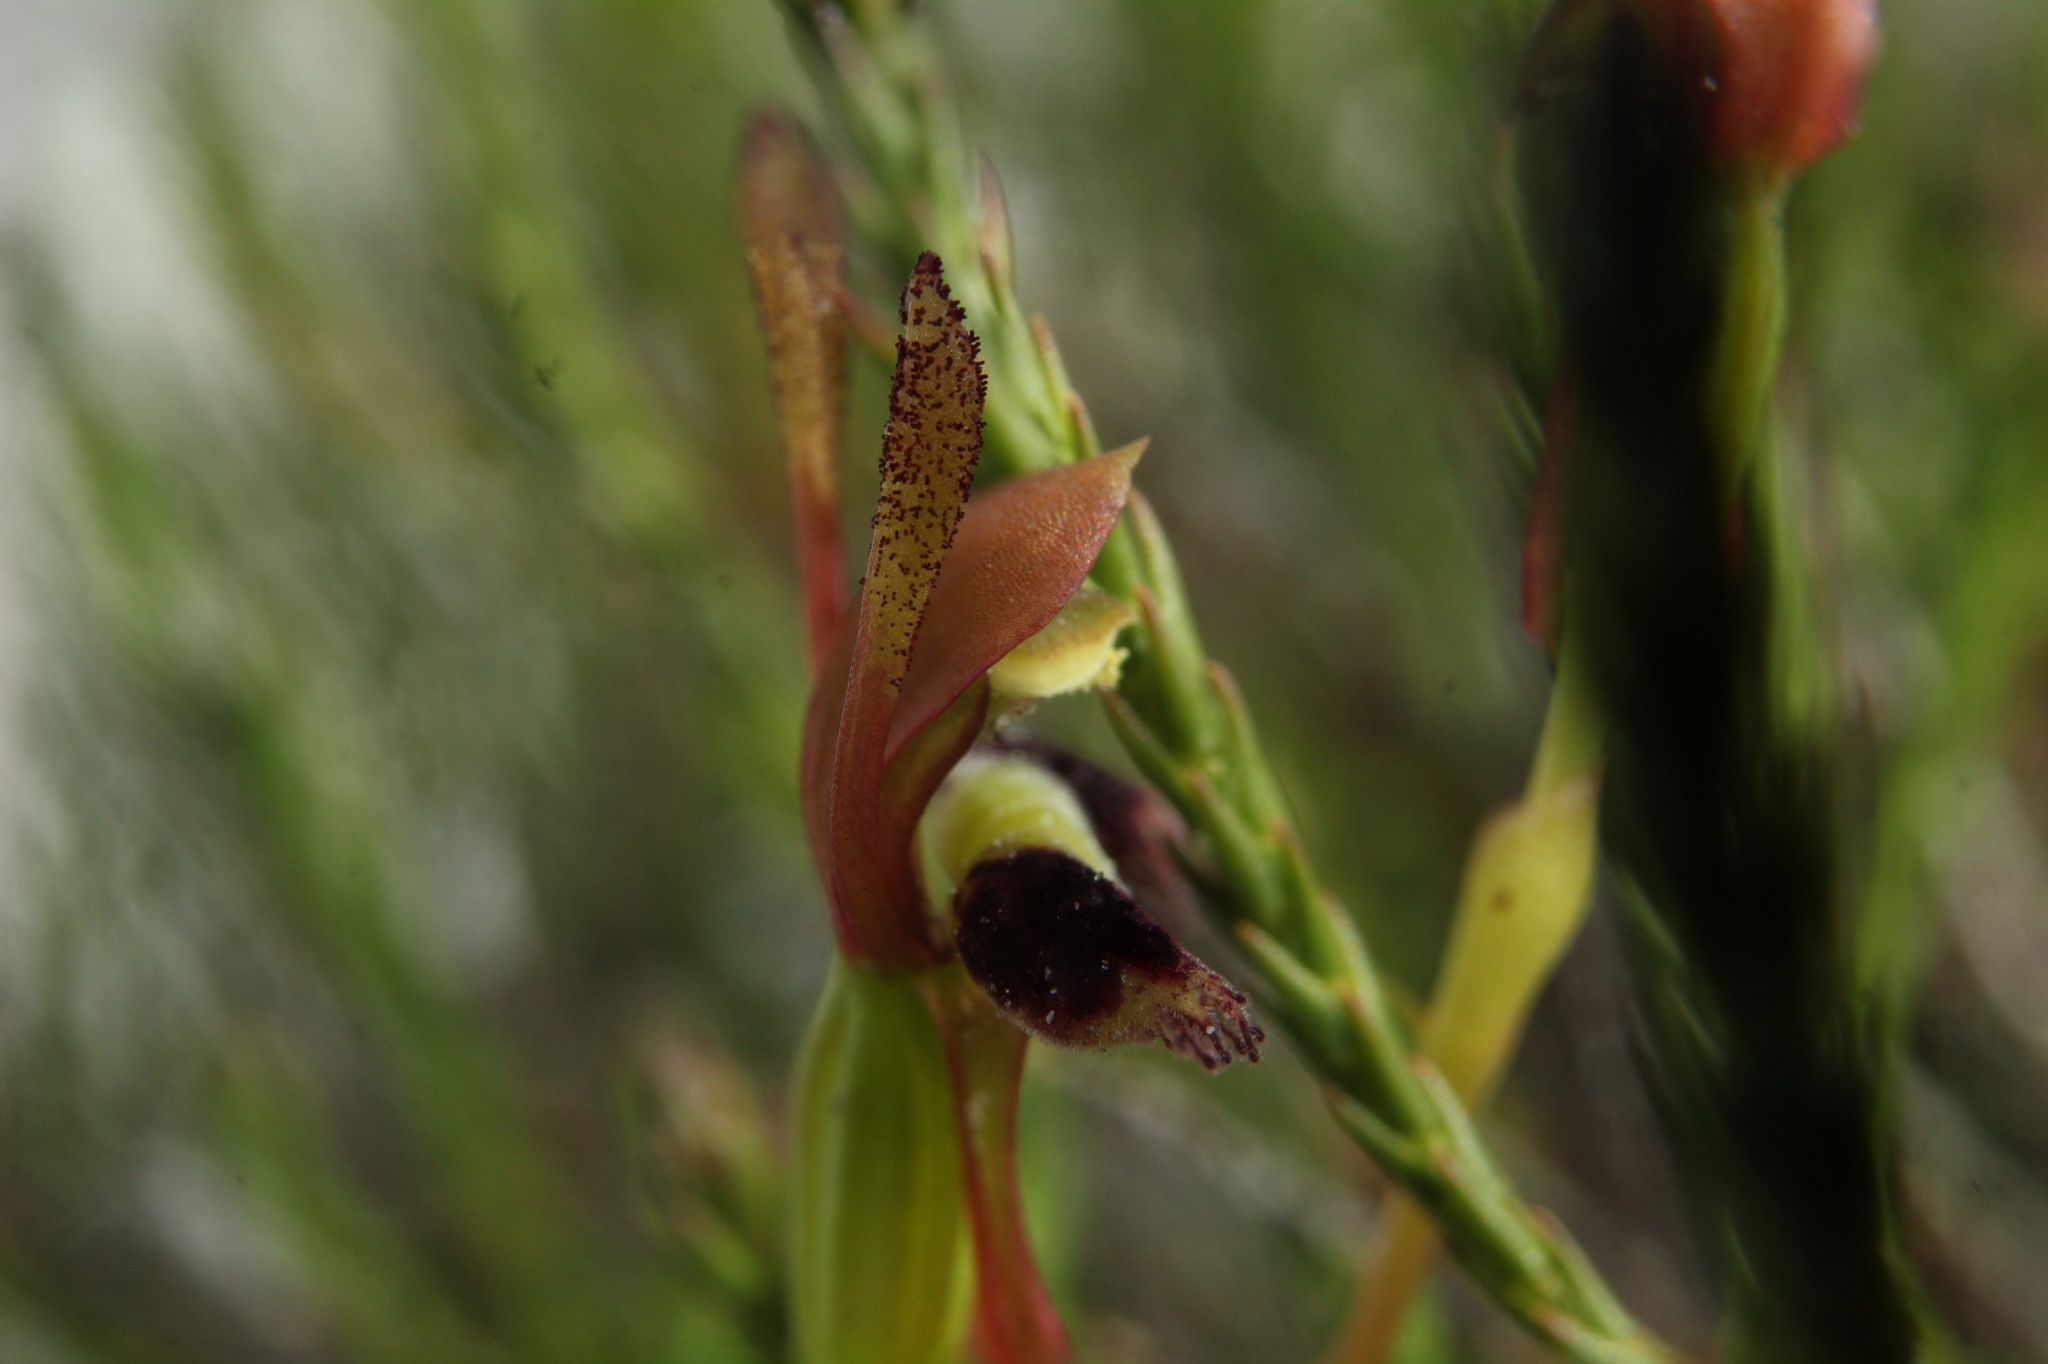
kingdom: Plantae
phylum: Tracheophyta
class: Liliopsida
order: Asparagales
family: Orchidaceae
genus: Leporella
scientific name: Leporella fimbriata
